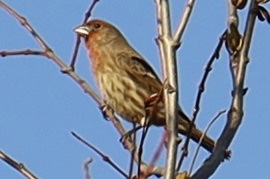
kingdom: Animalia
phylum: Chordata
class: Aves
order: Passeriformes
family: Fringillidae
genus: Haemorhous
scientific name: Haemorhous mexicanus
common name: House finch
